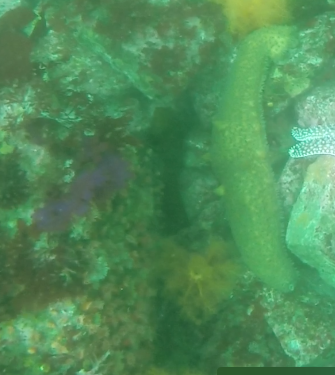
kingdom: Animalia
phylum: Echinodermata
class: Holothuroidea
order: Synallactida
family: Stichopodidae
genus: Apostichopus
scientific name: Apostichopus parvimensis
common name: Warty sea cucumber
